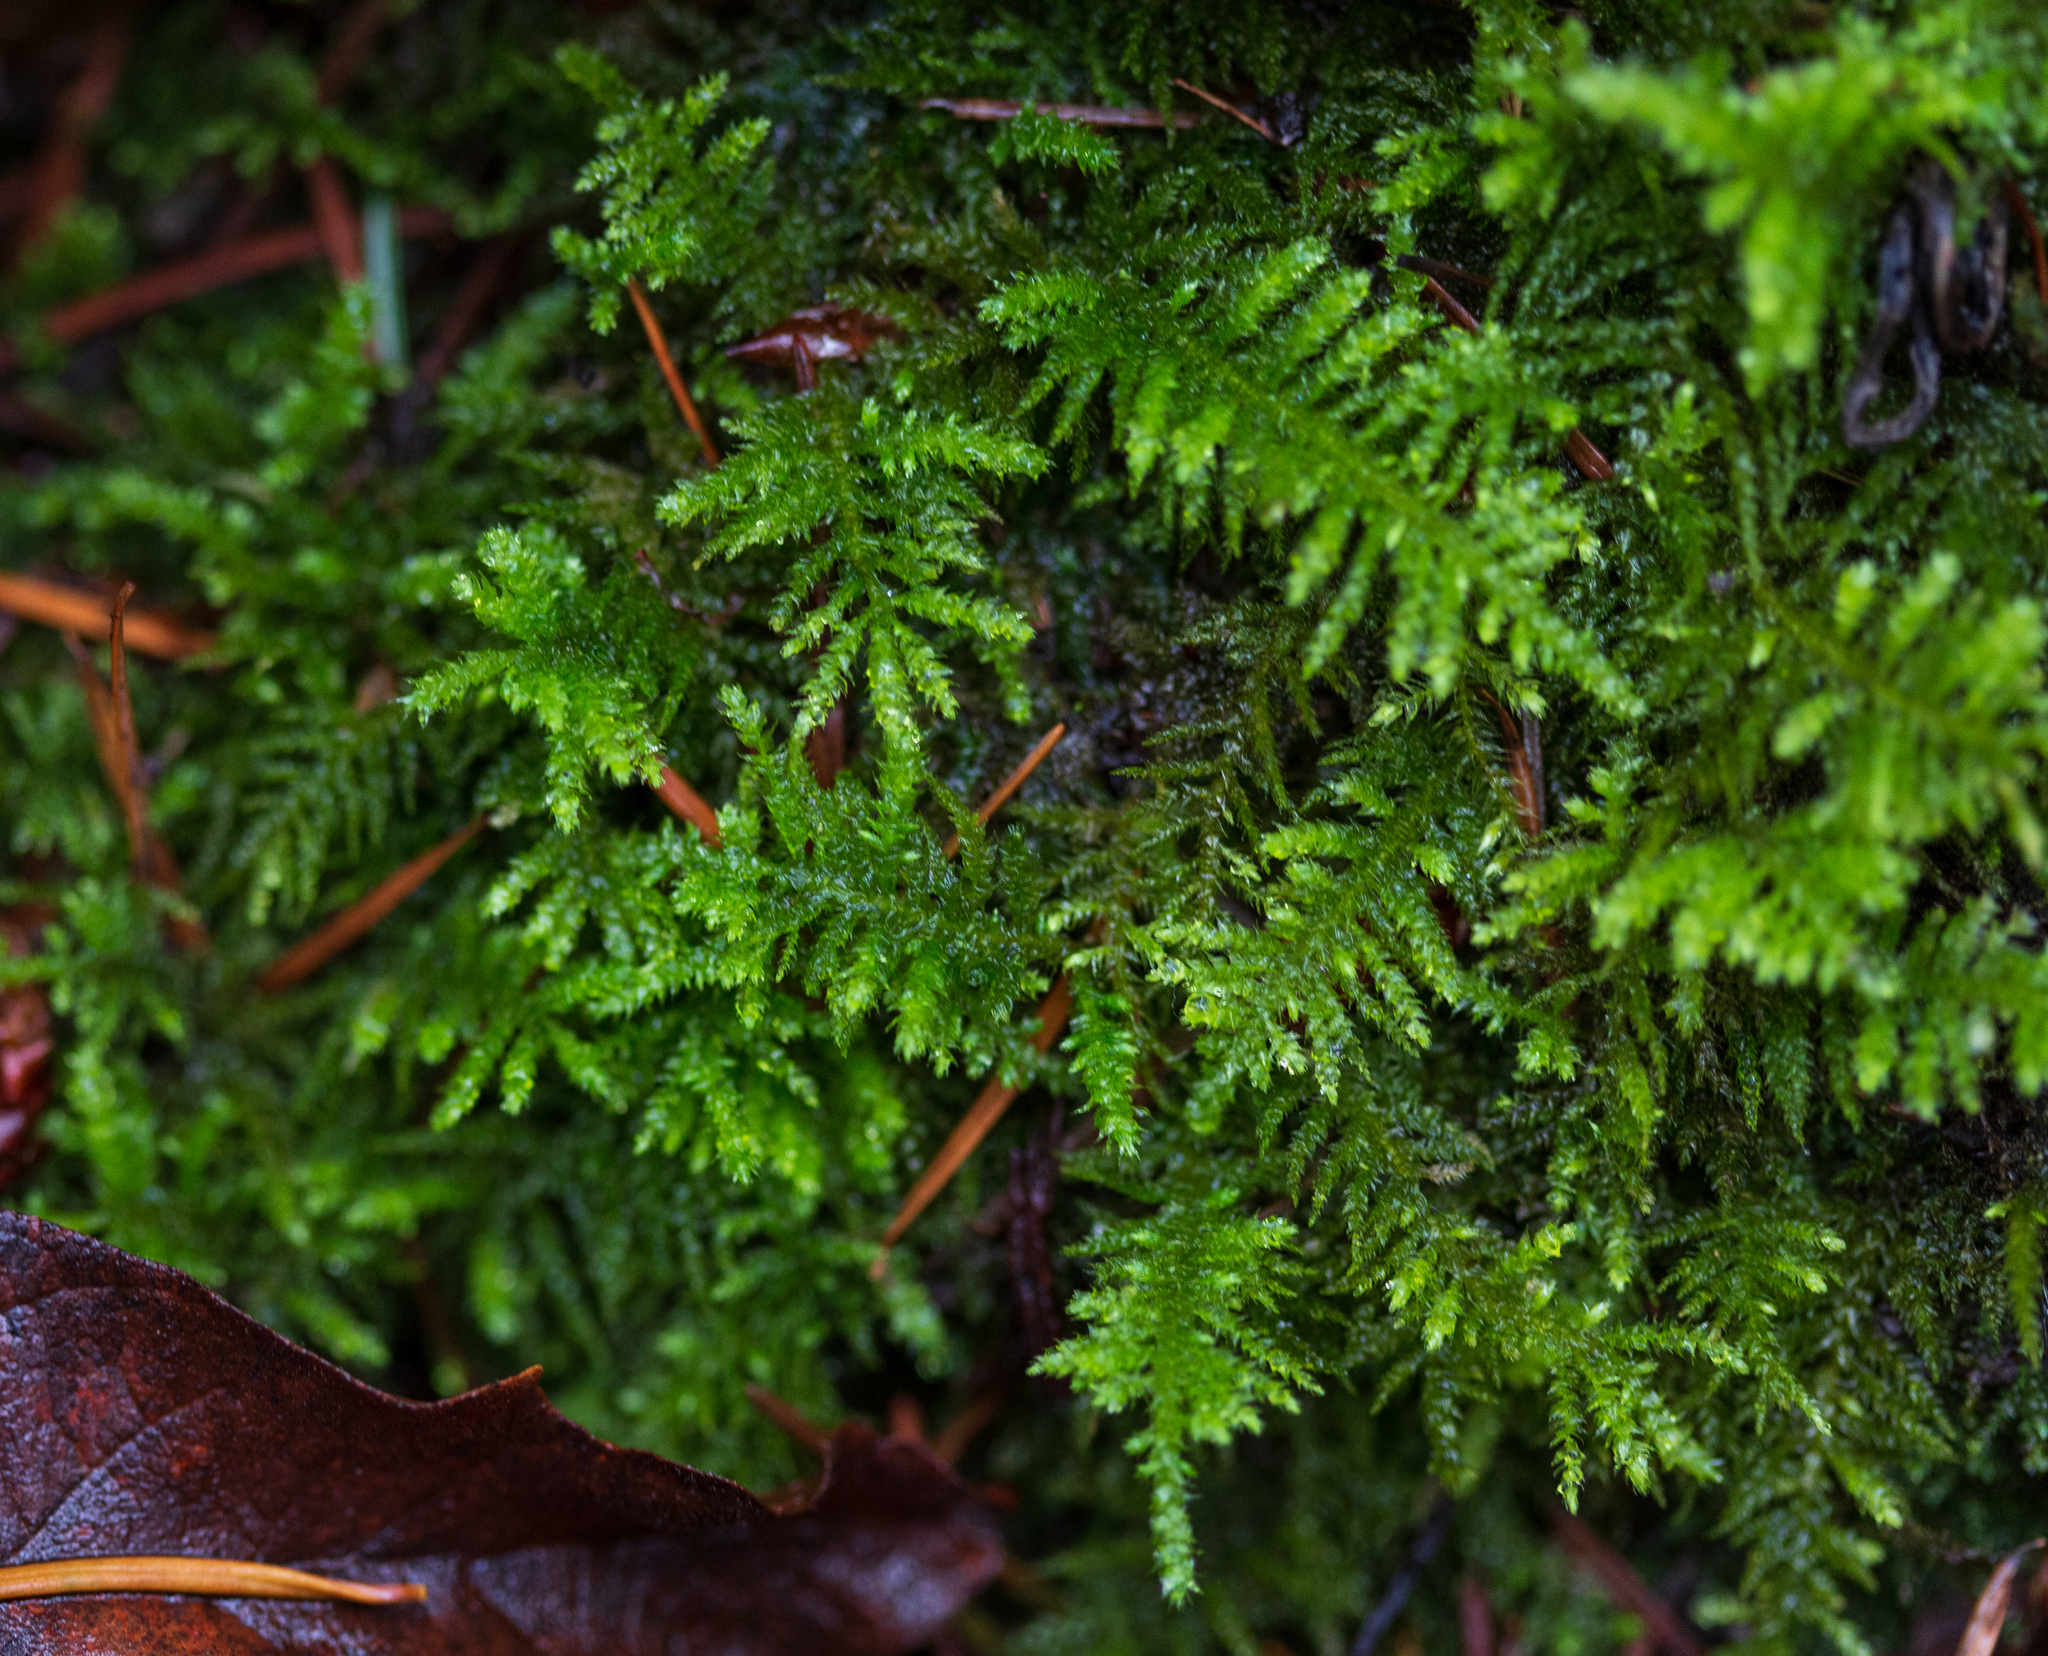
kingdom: Plantae
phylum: Bryophyta
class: Bryopsida
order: Hypnales
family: Brachytheciaceae
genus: Kindbergia
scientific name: Kindbergia oregana
